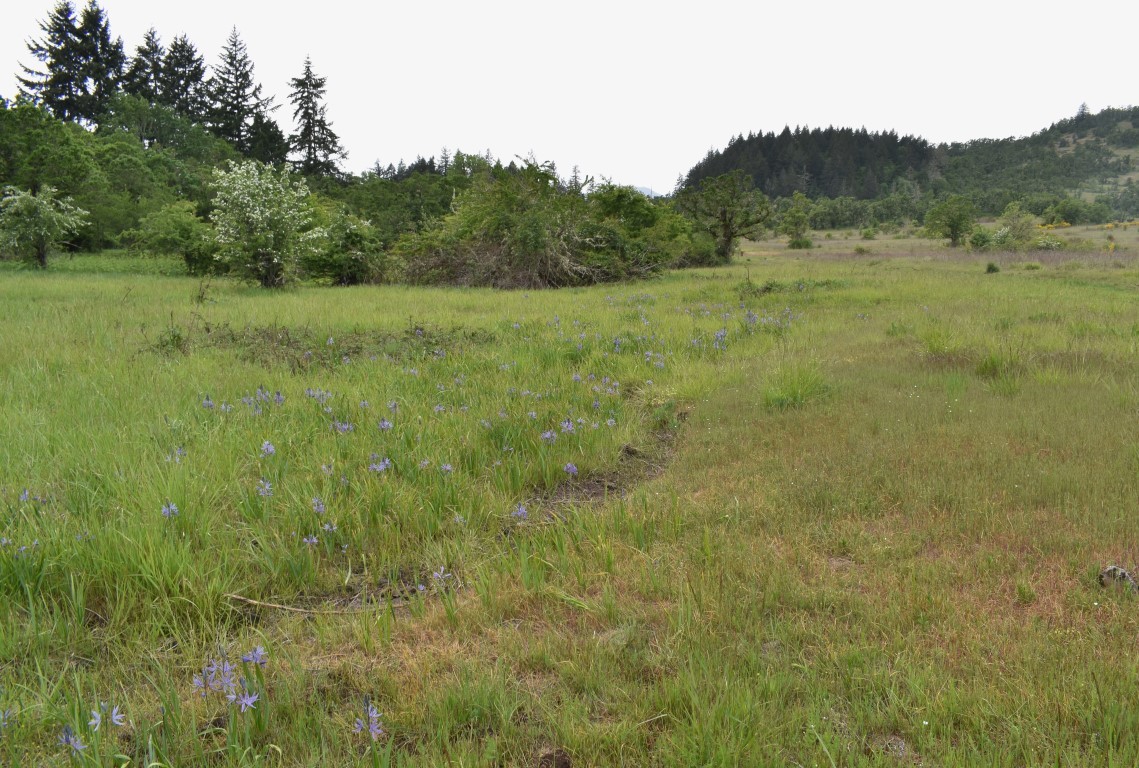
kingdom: Plantae
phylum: Tracheophyta
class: Liliopsida
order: Asparagales
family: Asparagaceae
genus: Camassia
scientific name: Camassia leichtlinii
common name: Leichtlin's camas
